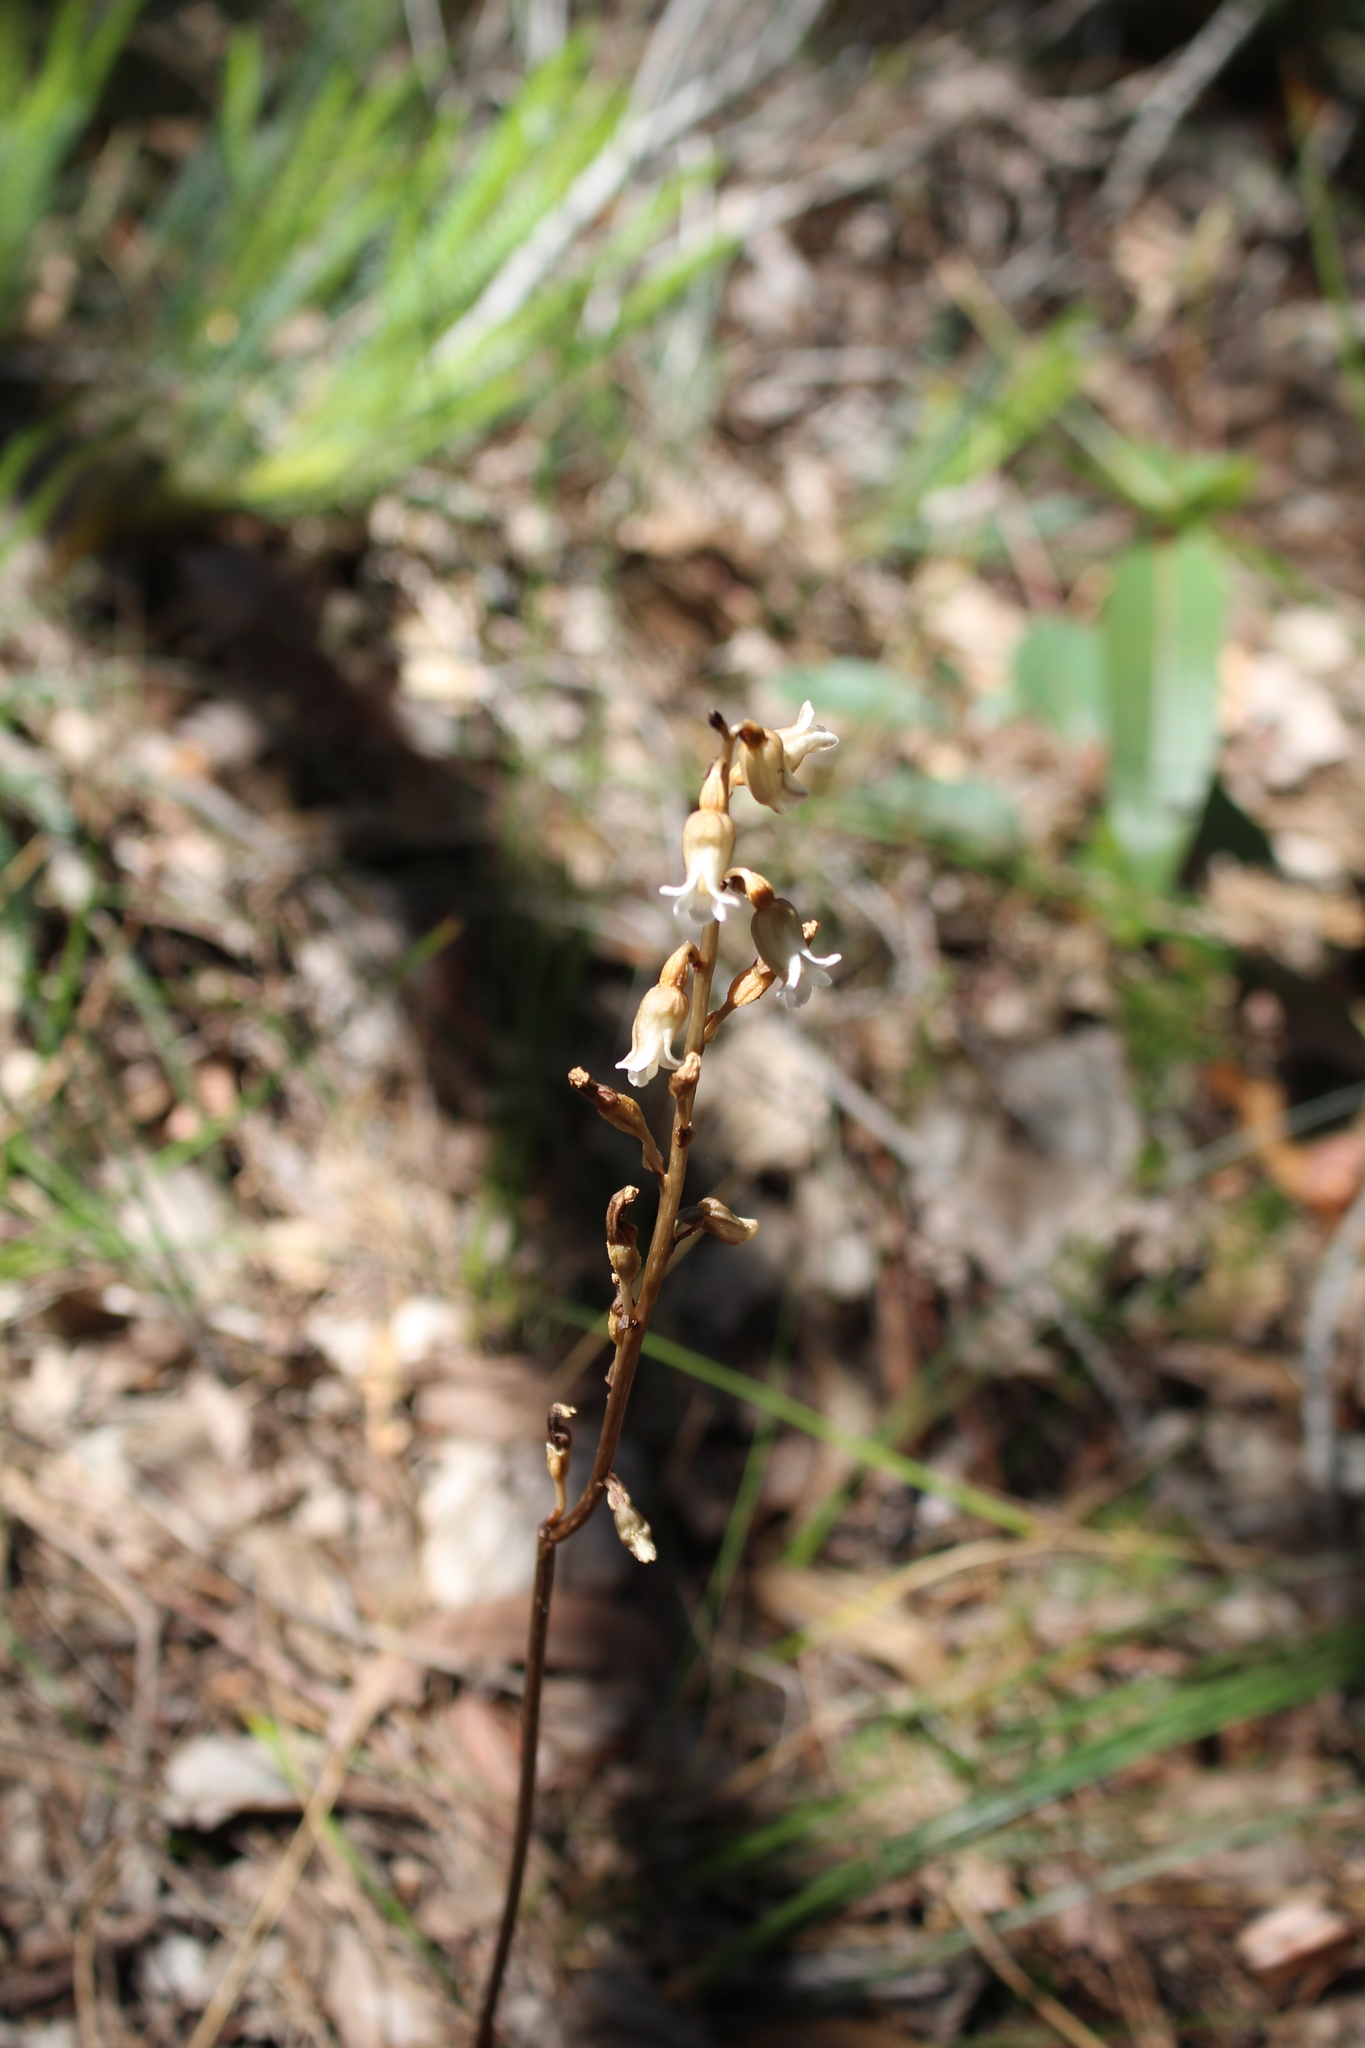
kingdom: Plantae
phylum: Tracheophyta
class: Liliopsida
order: Asparagales
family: Orchidaceae
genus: Gastrodia
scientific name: Gastrodia lacista
